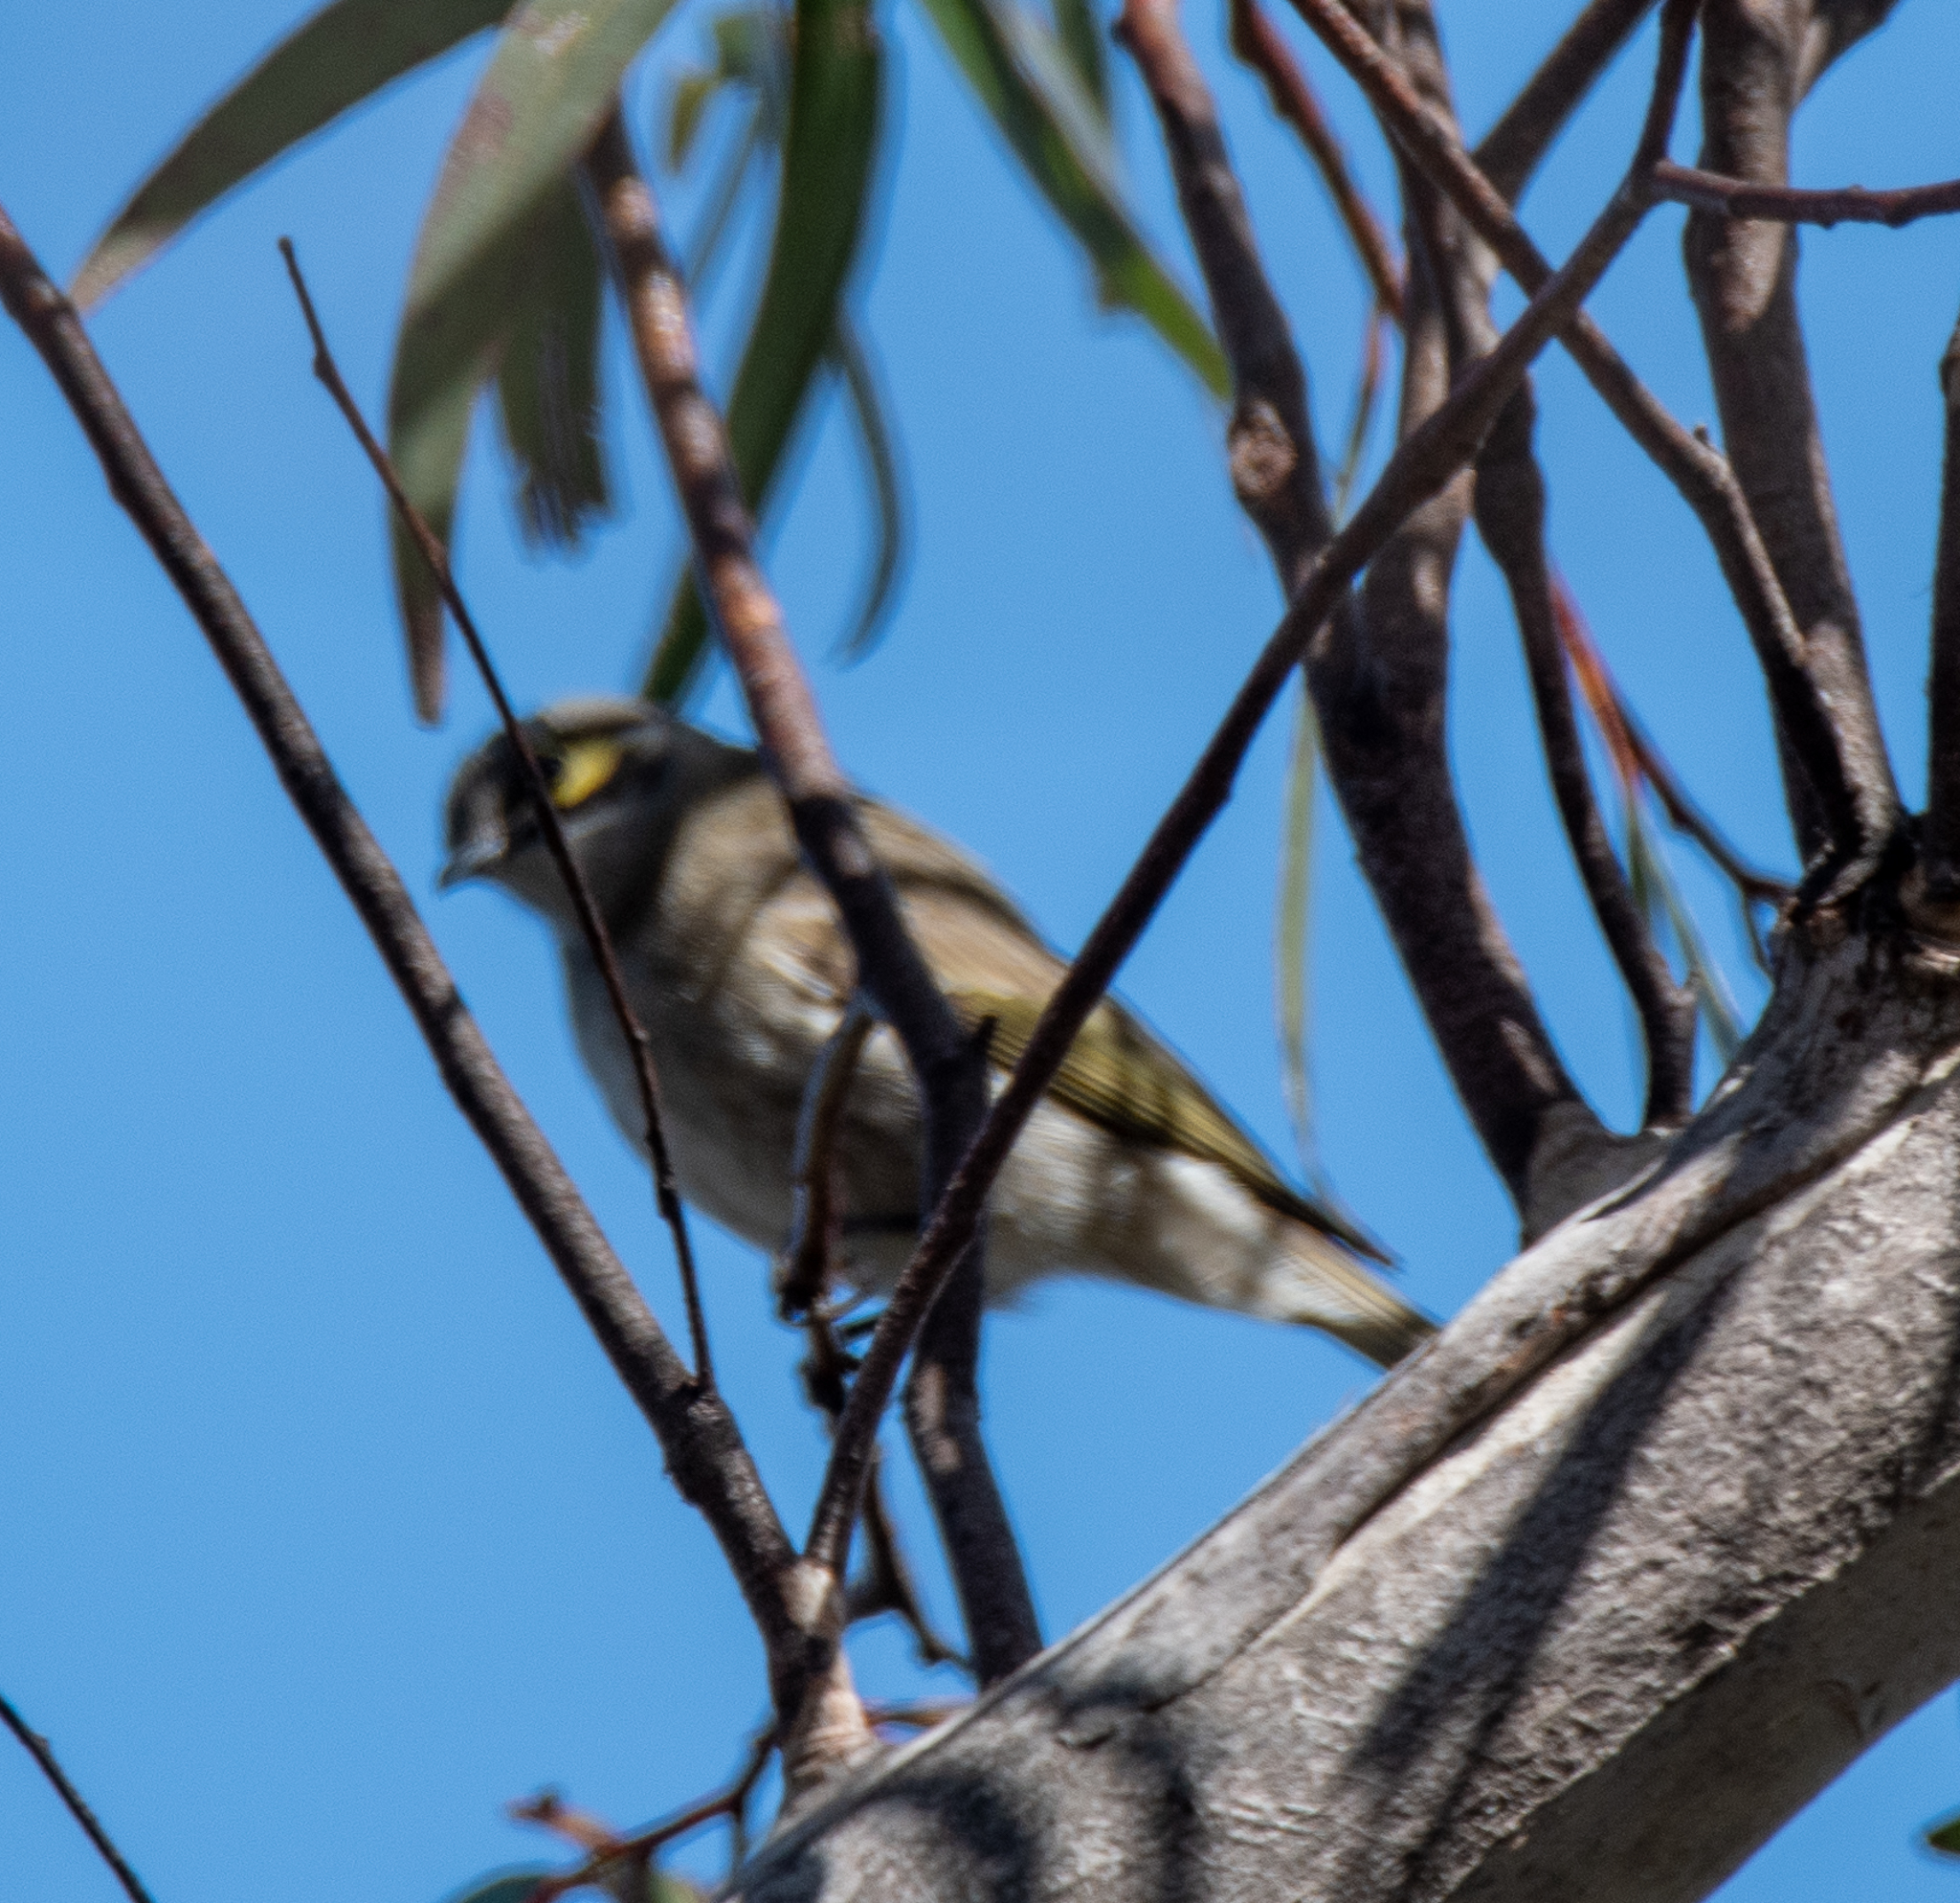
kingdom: Animalia
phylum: Chordata
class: Aves
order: Passeriformes
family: Meliphagidae
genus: Caligavis
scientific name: Caligavis chrysops
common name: Yellow-faced honeyeater
